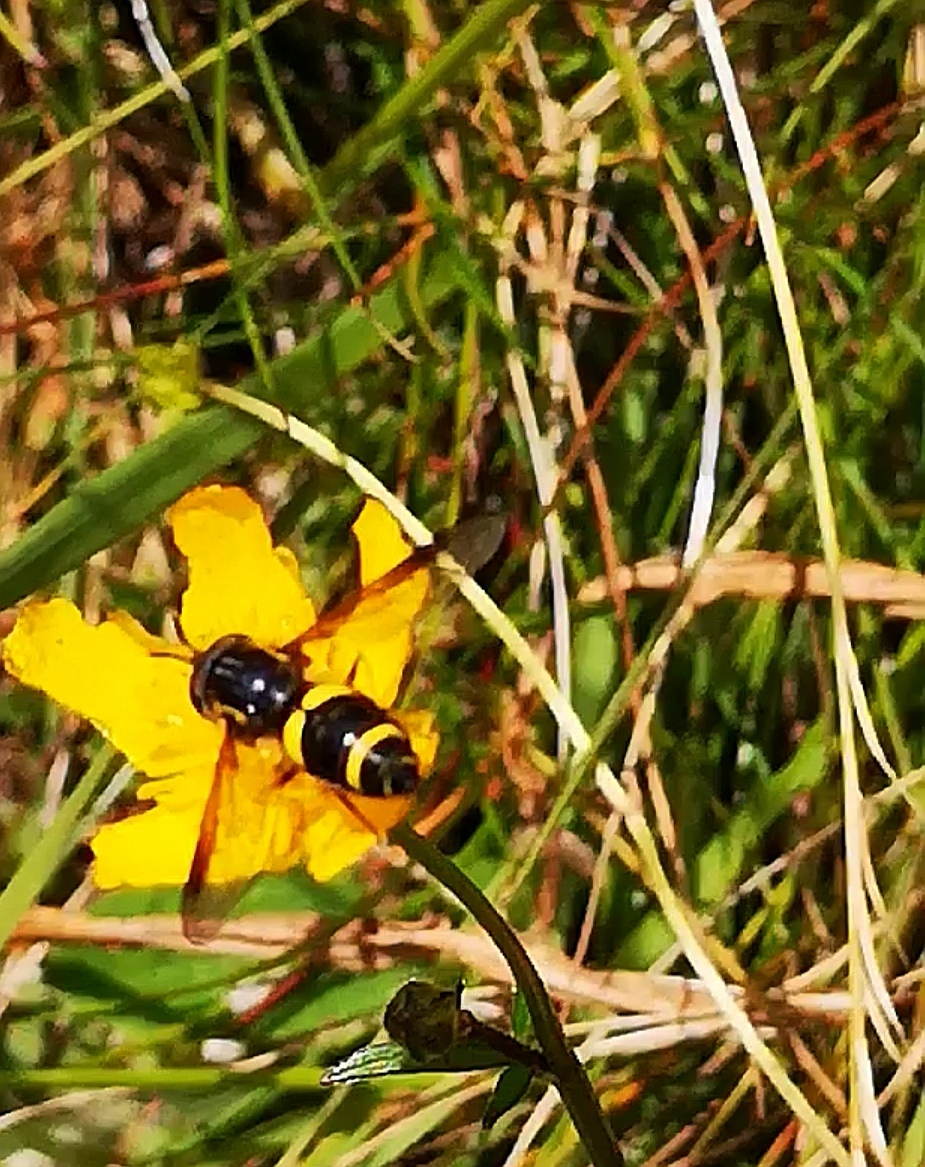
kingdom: Animalia
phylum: Arthropoda
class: Insecta
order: Diptera
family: Syrphidae
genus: Chrysotoxum
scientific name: Chrysotoxum bicincta
